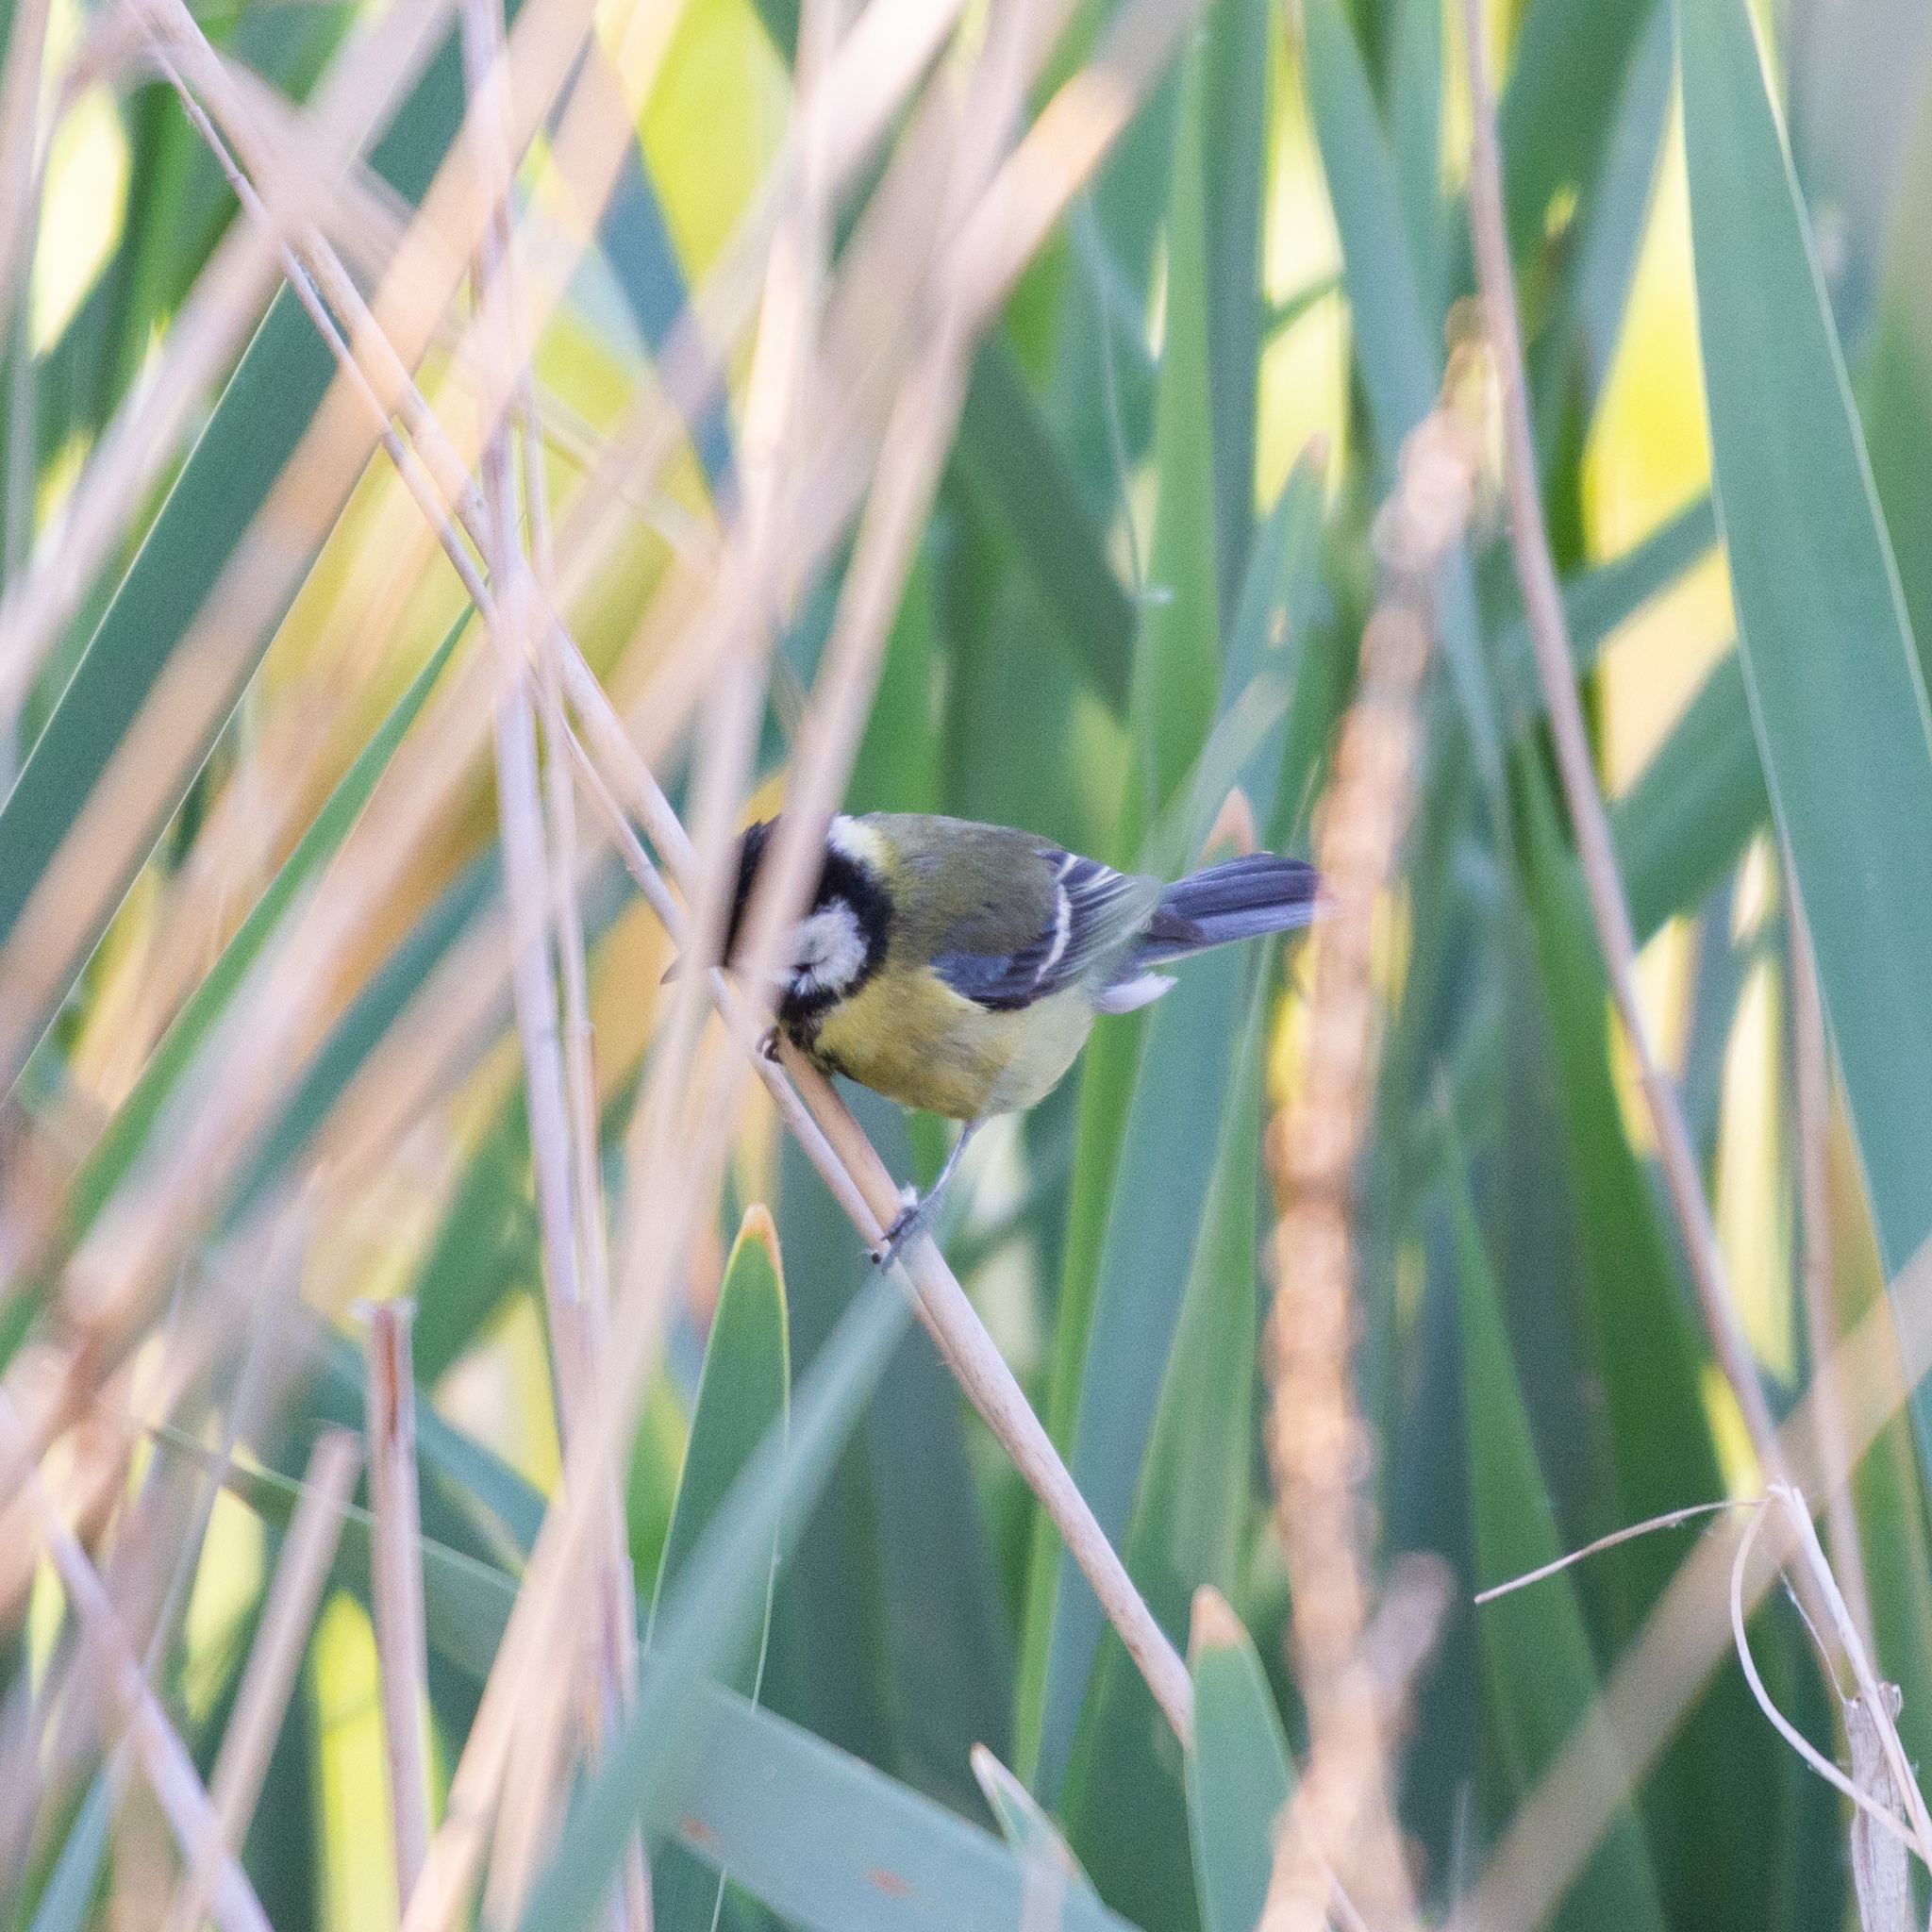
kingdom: Animalia
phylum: Chordata
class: Aves
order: Passeriformes
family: Paridae
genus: Parus
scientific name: Parus major
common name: Great tit
